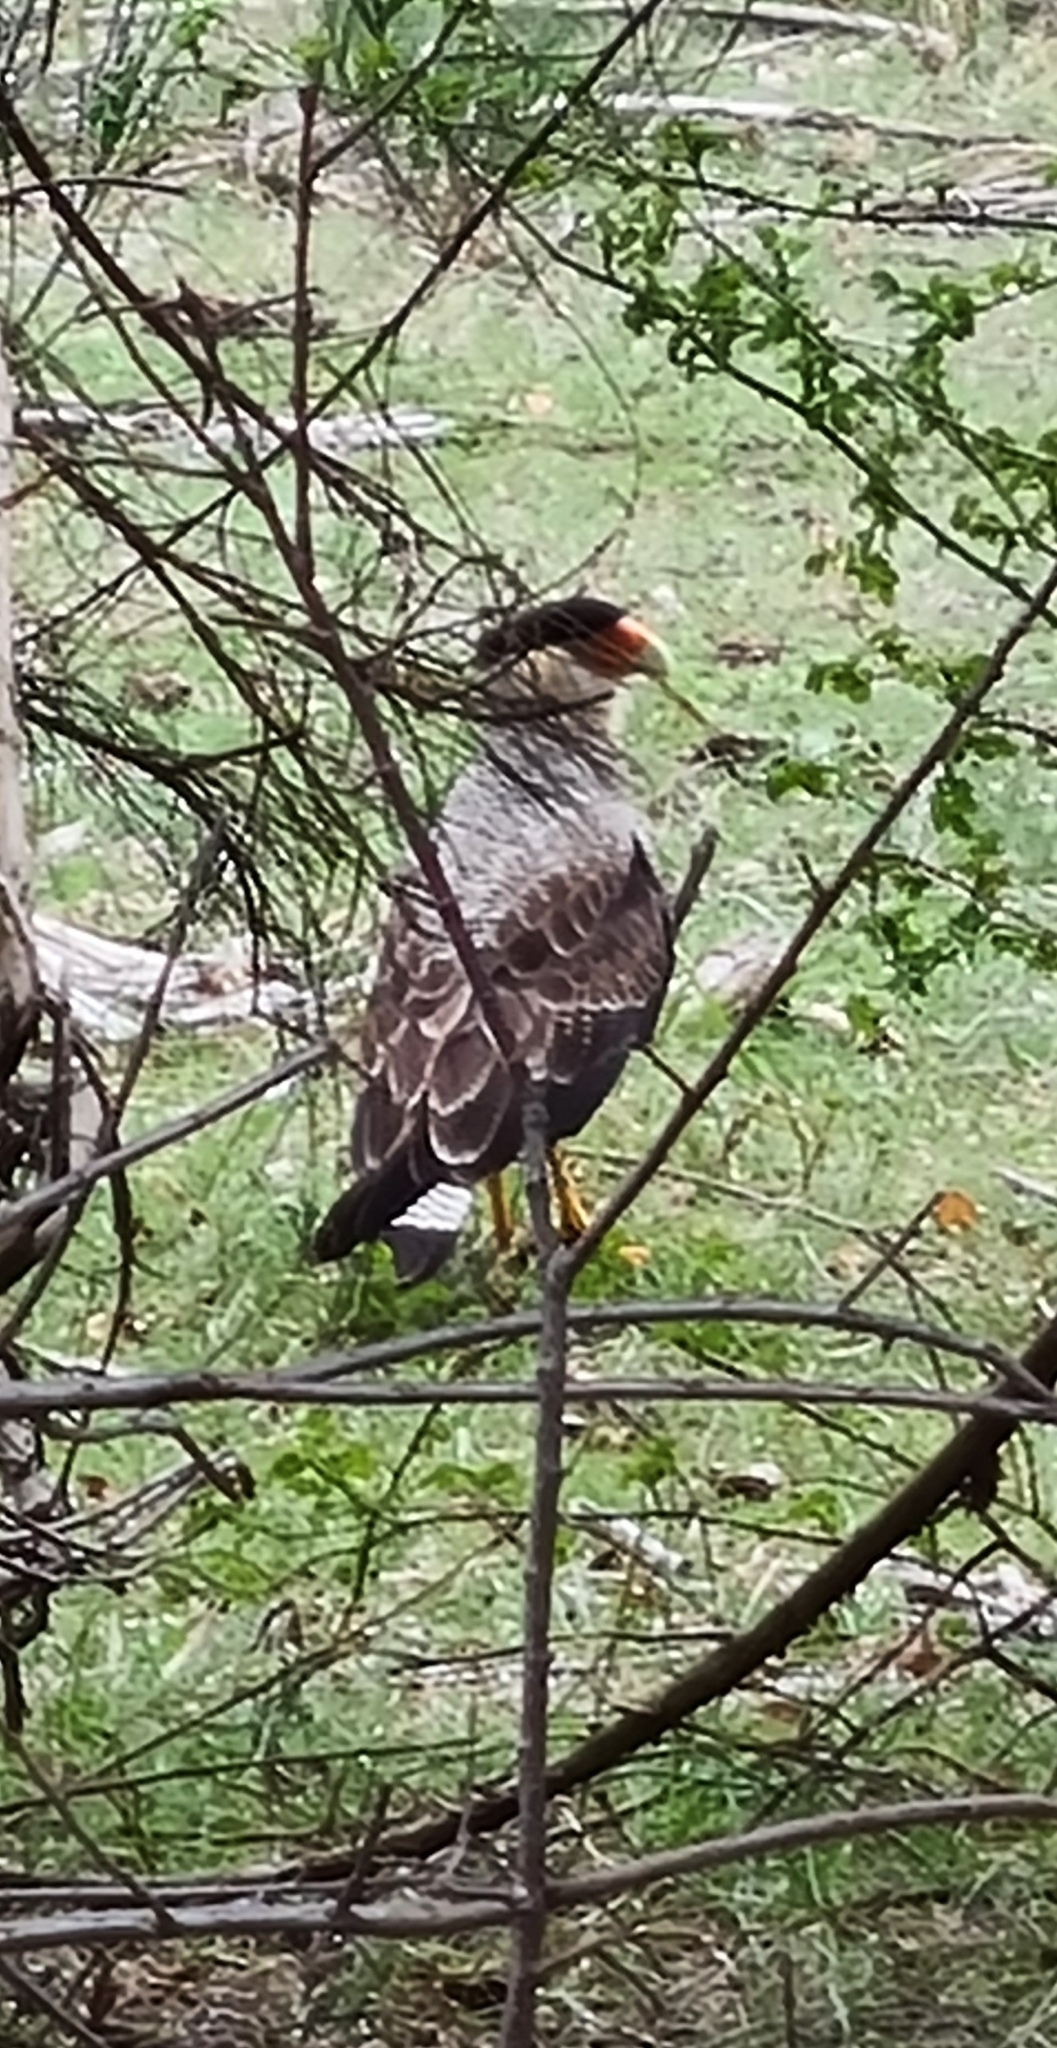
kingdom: Animalia
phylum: Chordata
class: Aves
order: Falconiformes
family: Falconidae
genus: Caracara
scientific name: Caracara plancus
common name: Southern caracara
